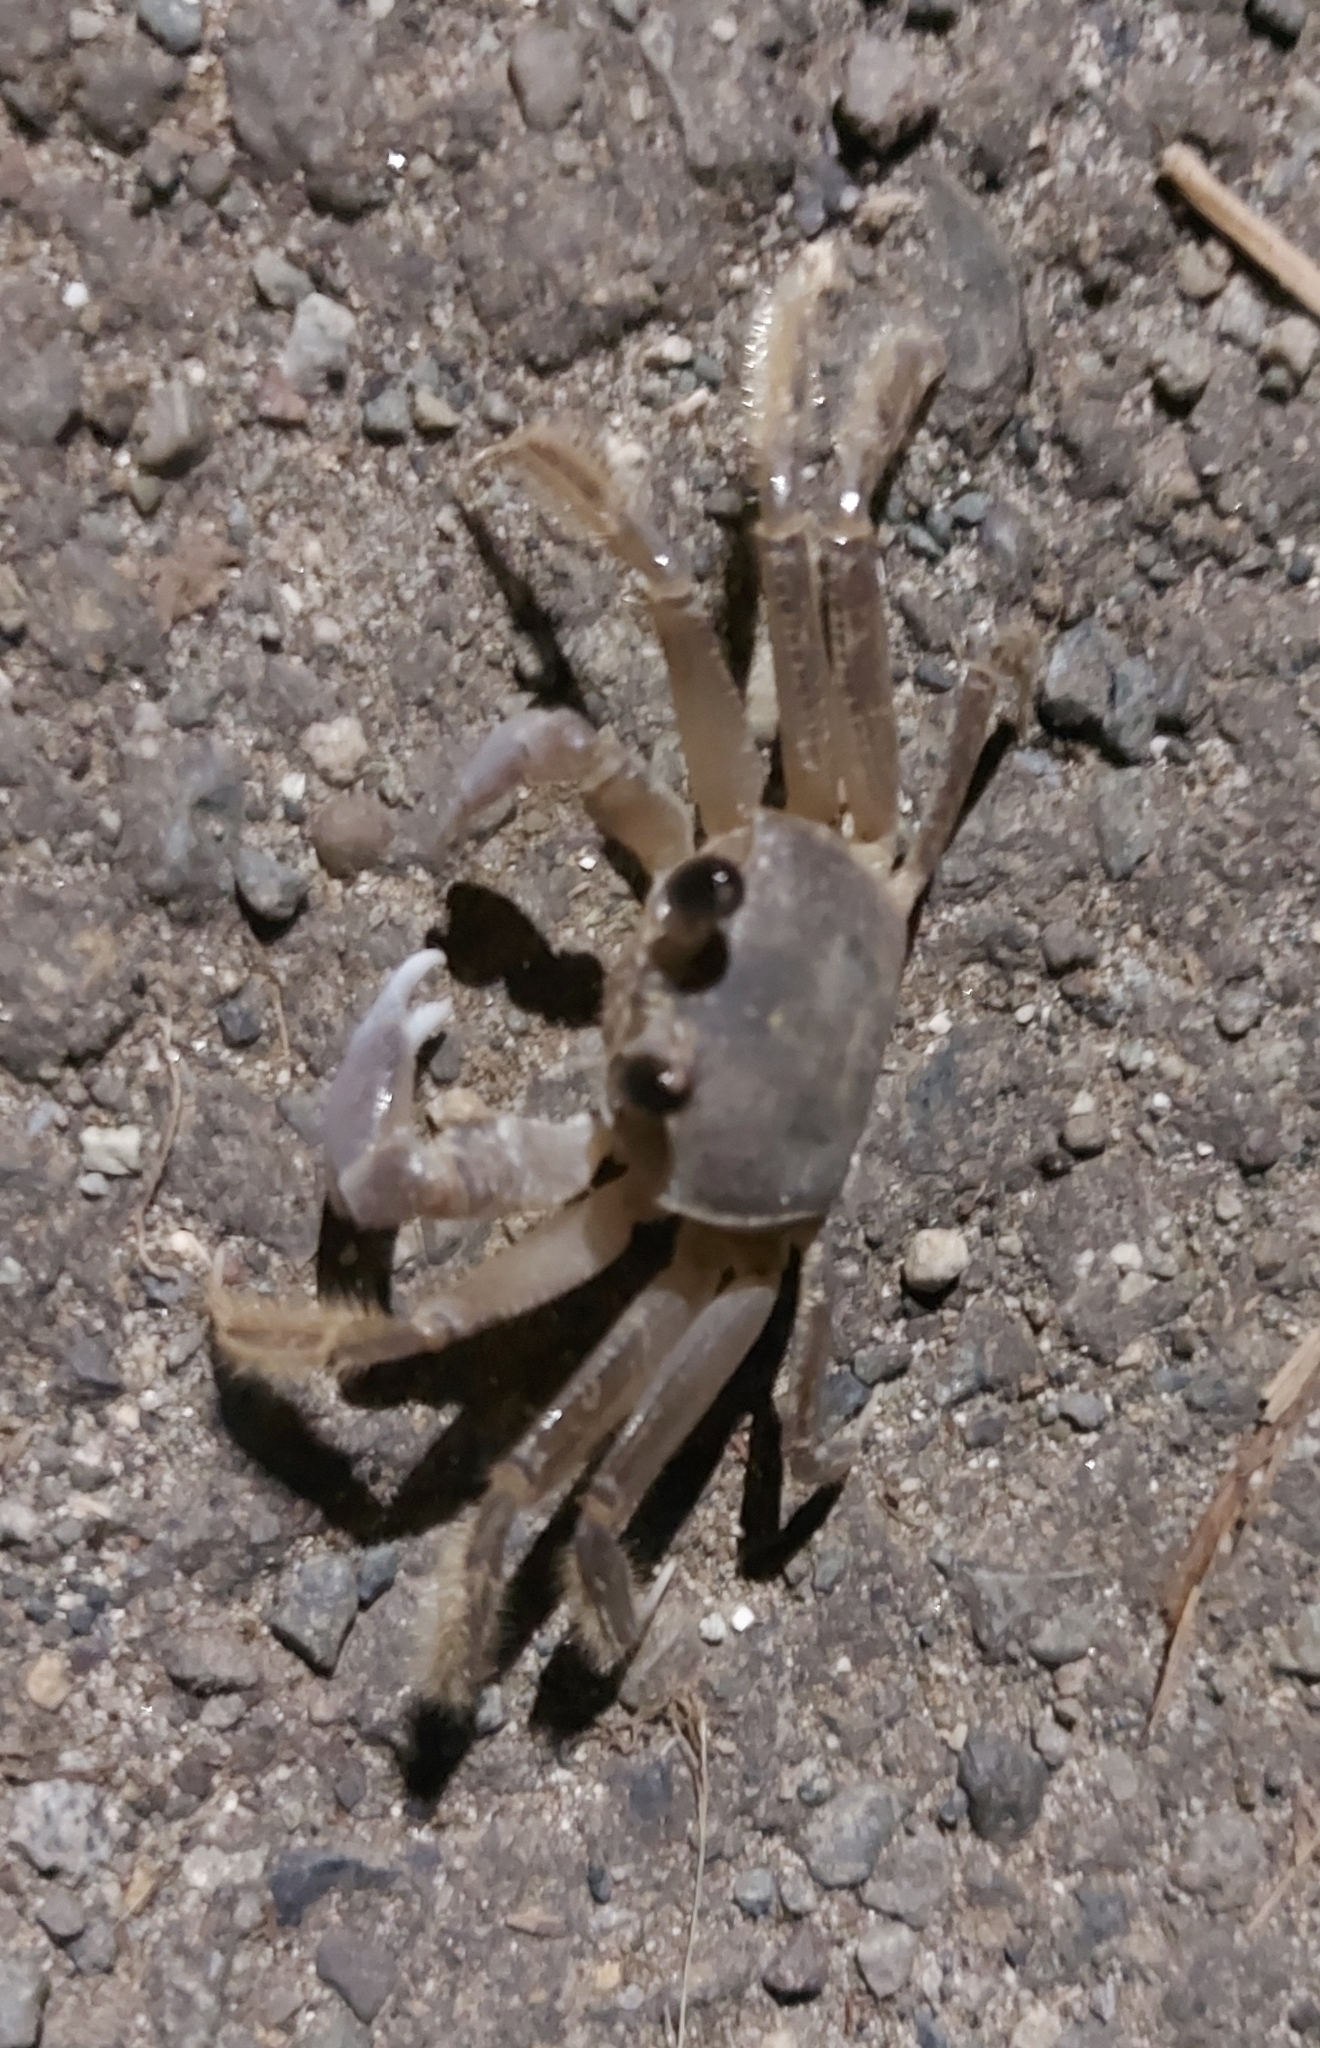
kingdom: Animalia
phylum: Arthropoda
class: Malacostraca
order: Decapoda
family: Ocypodidae
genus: Ocypode
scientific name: Ocypode quadrata
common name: Ghost crab
